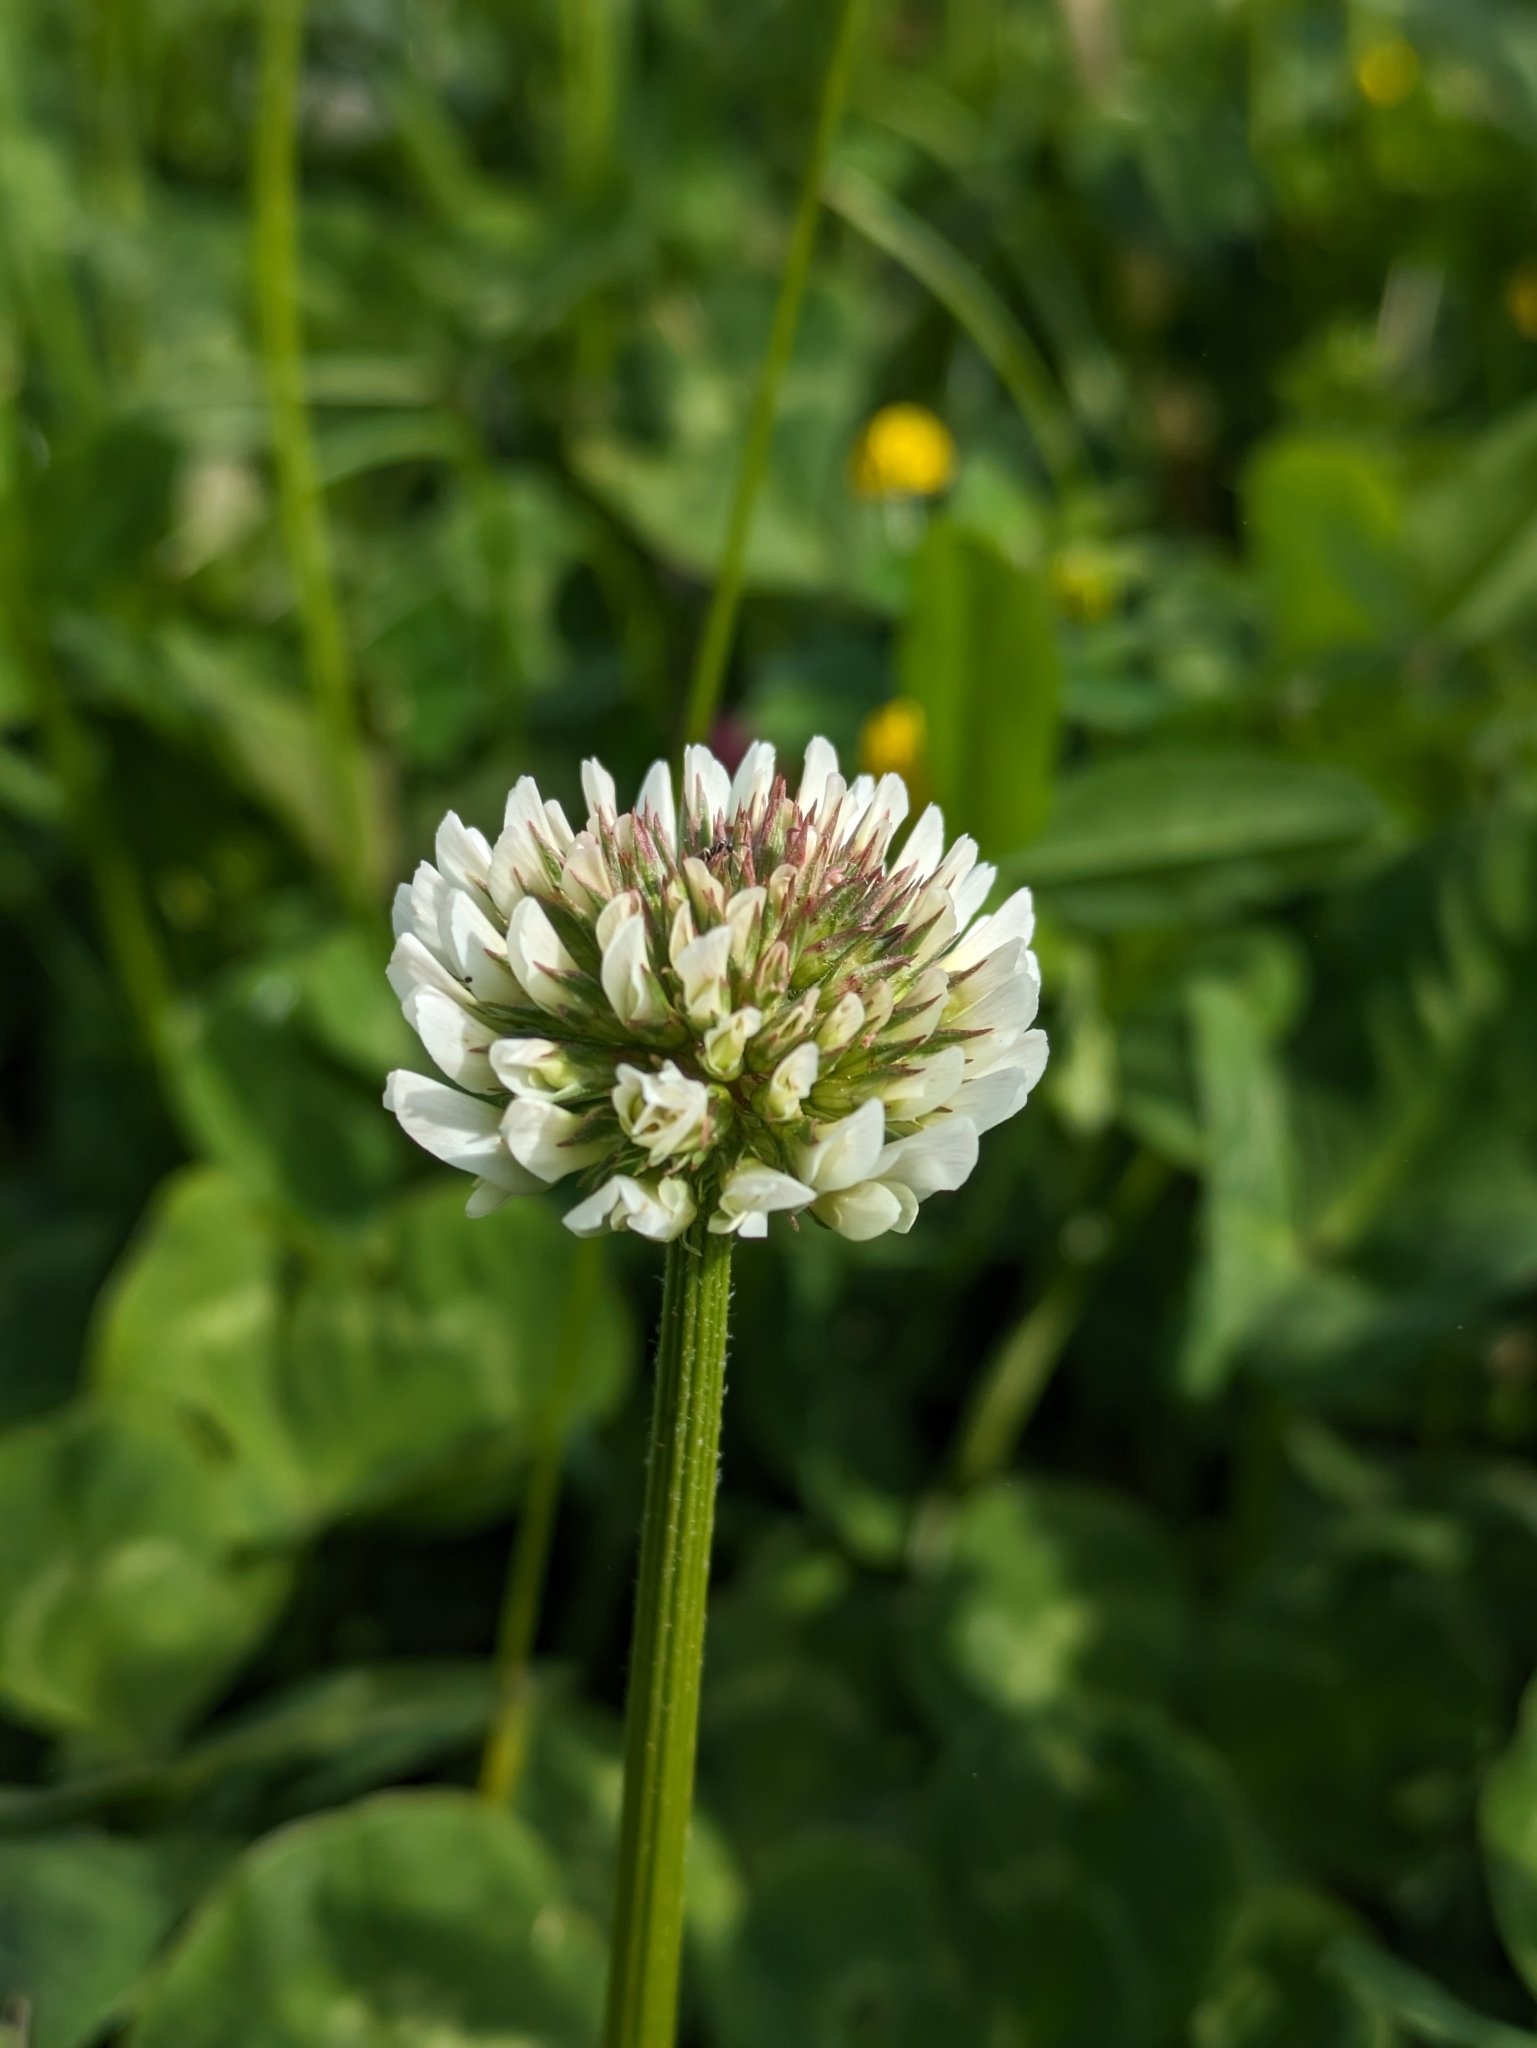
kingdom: Plantae
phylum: Tracheophyta
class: Magnoliopsida
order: Fabales
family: Fabaceae
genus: Trifolium
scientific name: Trifolium repens
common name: White clover
